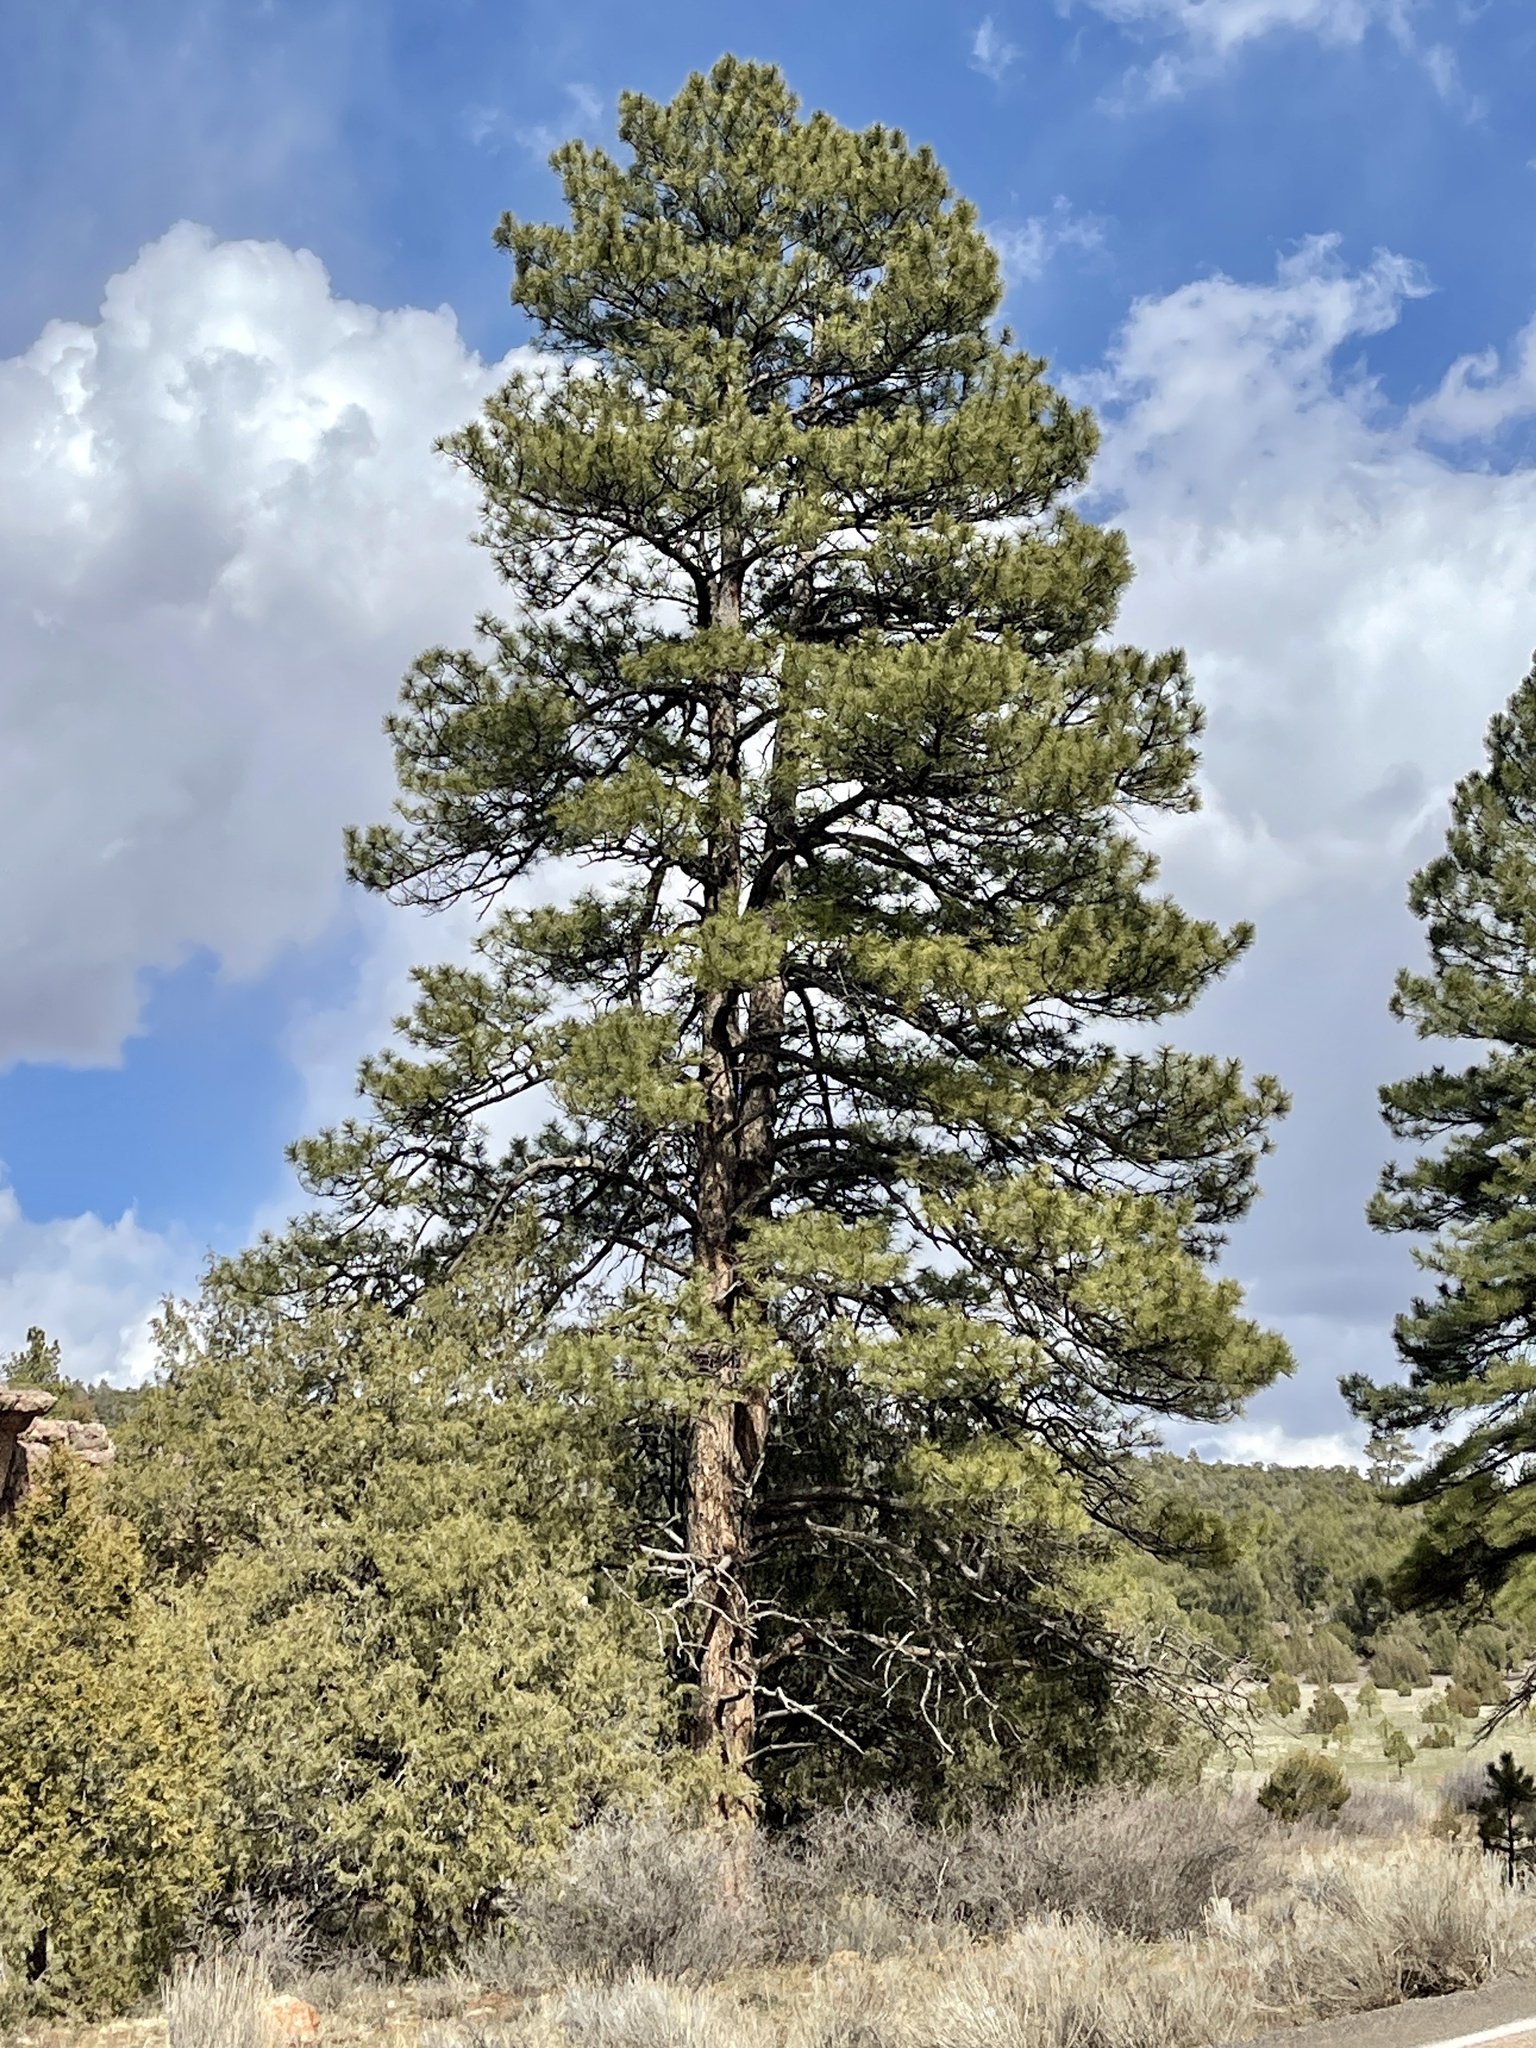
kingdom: Plantae
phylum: Tracheophyta
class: Pinopsida
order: Pinales
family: Pinaceae
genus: Pinus
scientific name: Pinus ponderosa
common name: Western yellow-pine
